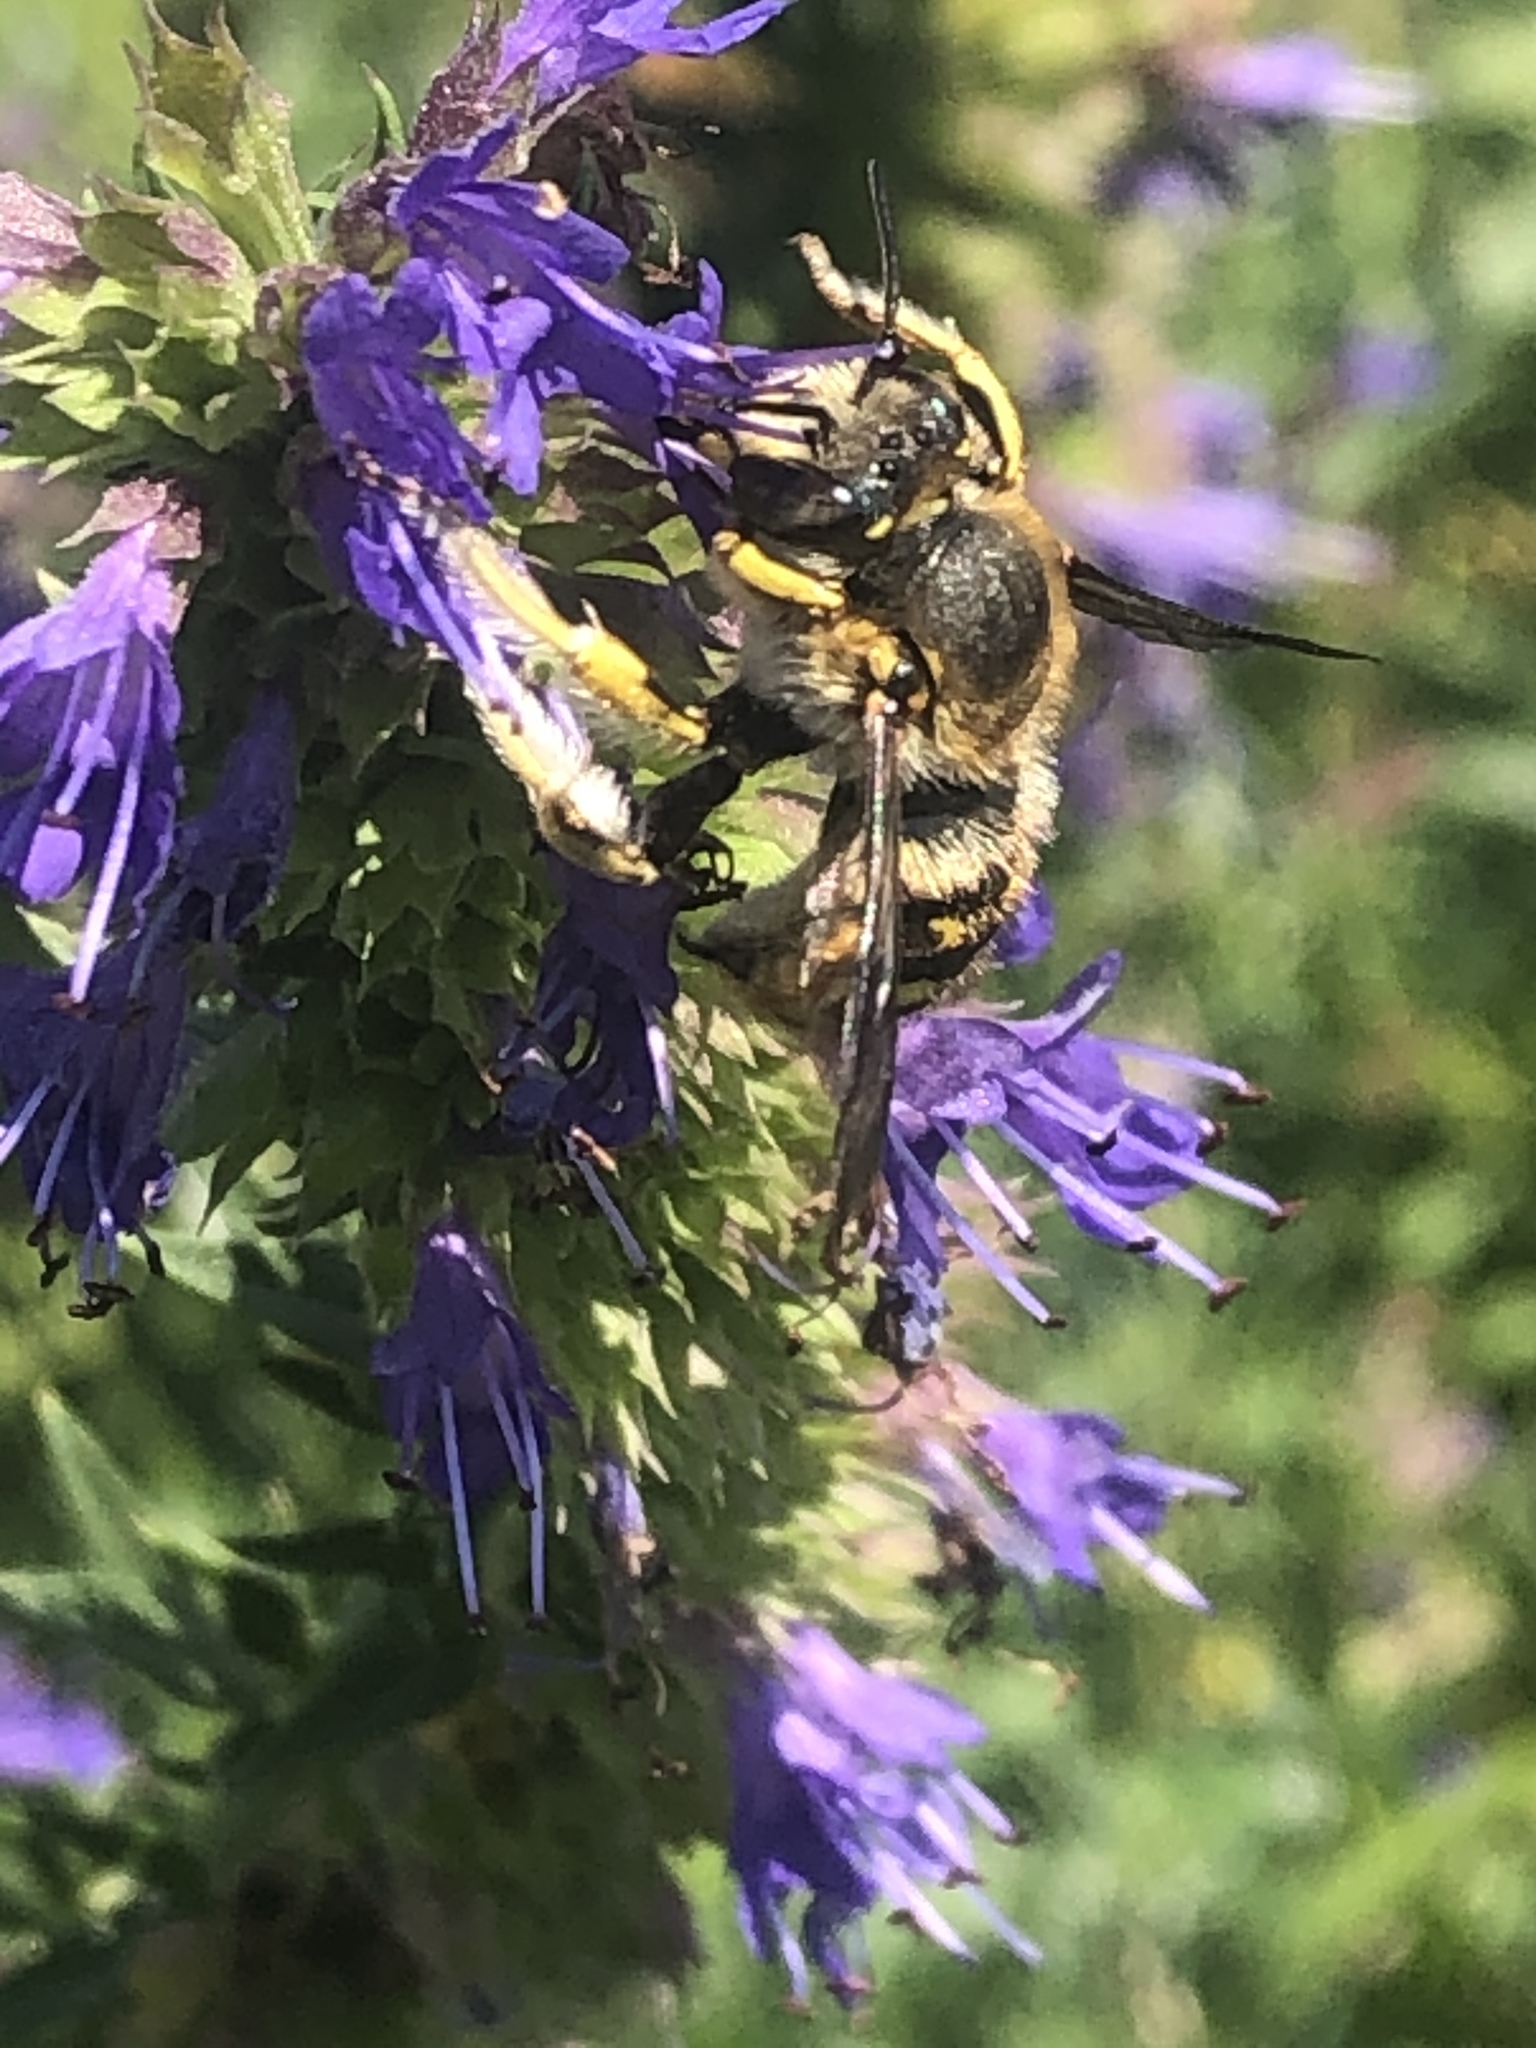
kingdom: Animalia
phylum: Arthropoda
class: Insecta
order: Hymenoptera
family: Megachilidae
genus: Anthidium
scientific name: Anthidium manicatum
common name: Wool carder bee
